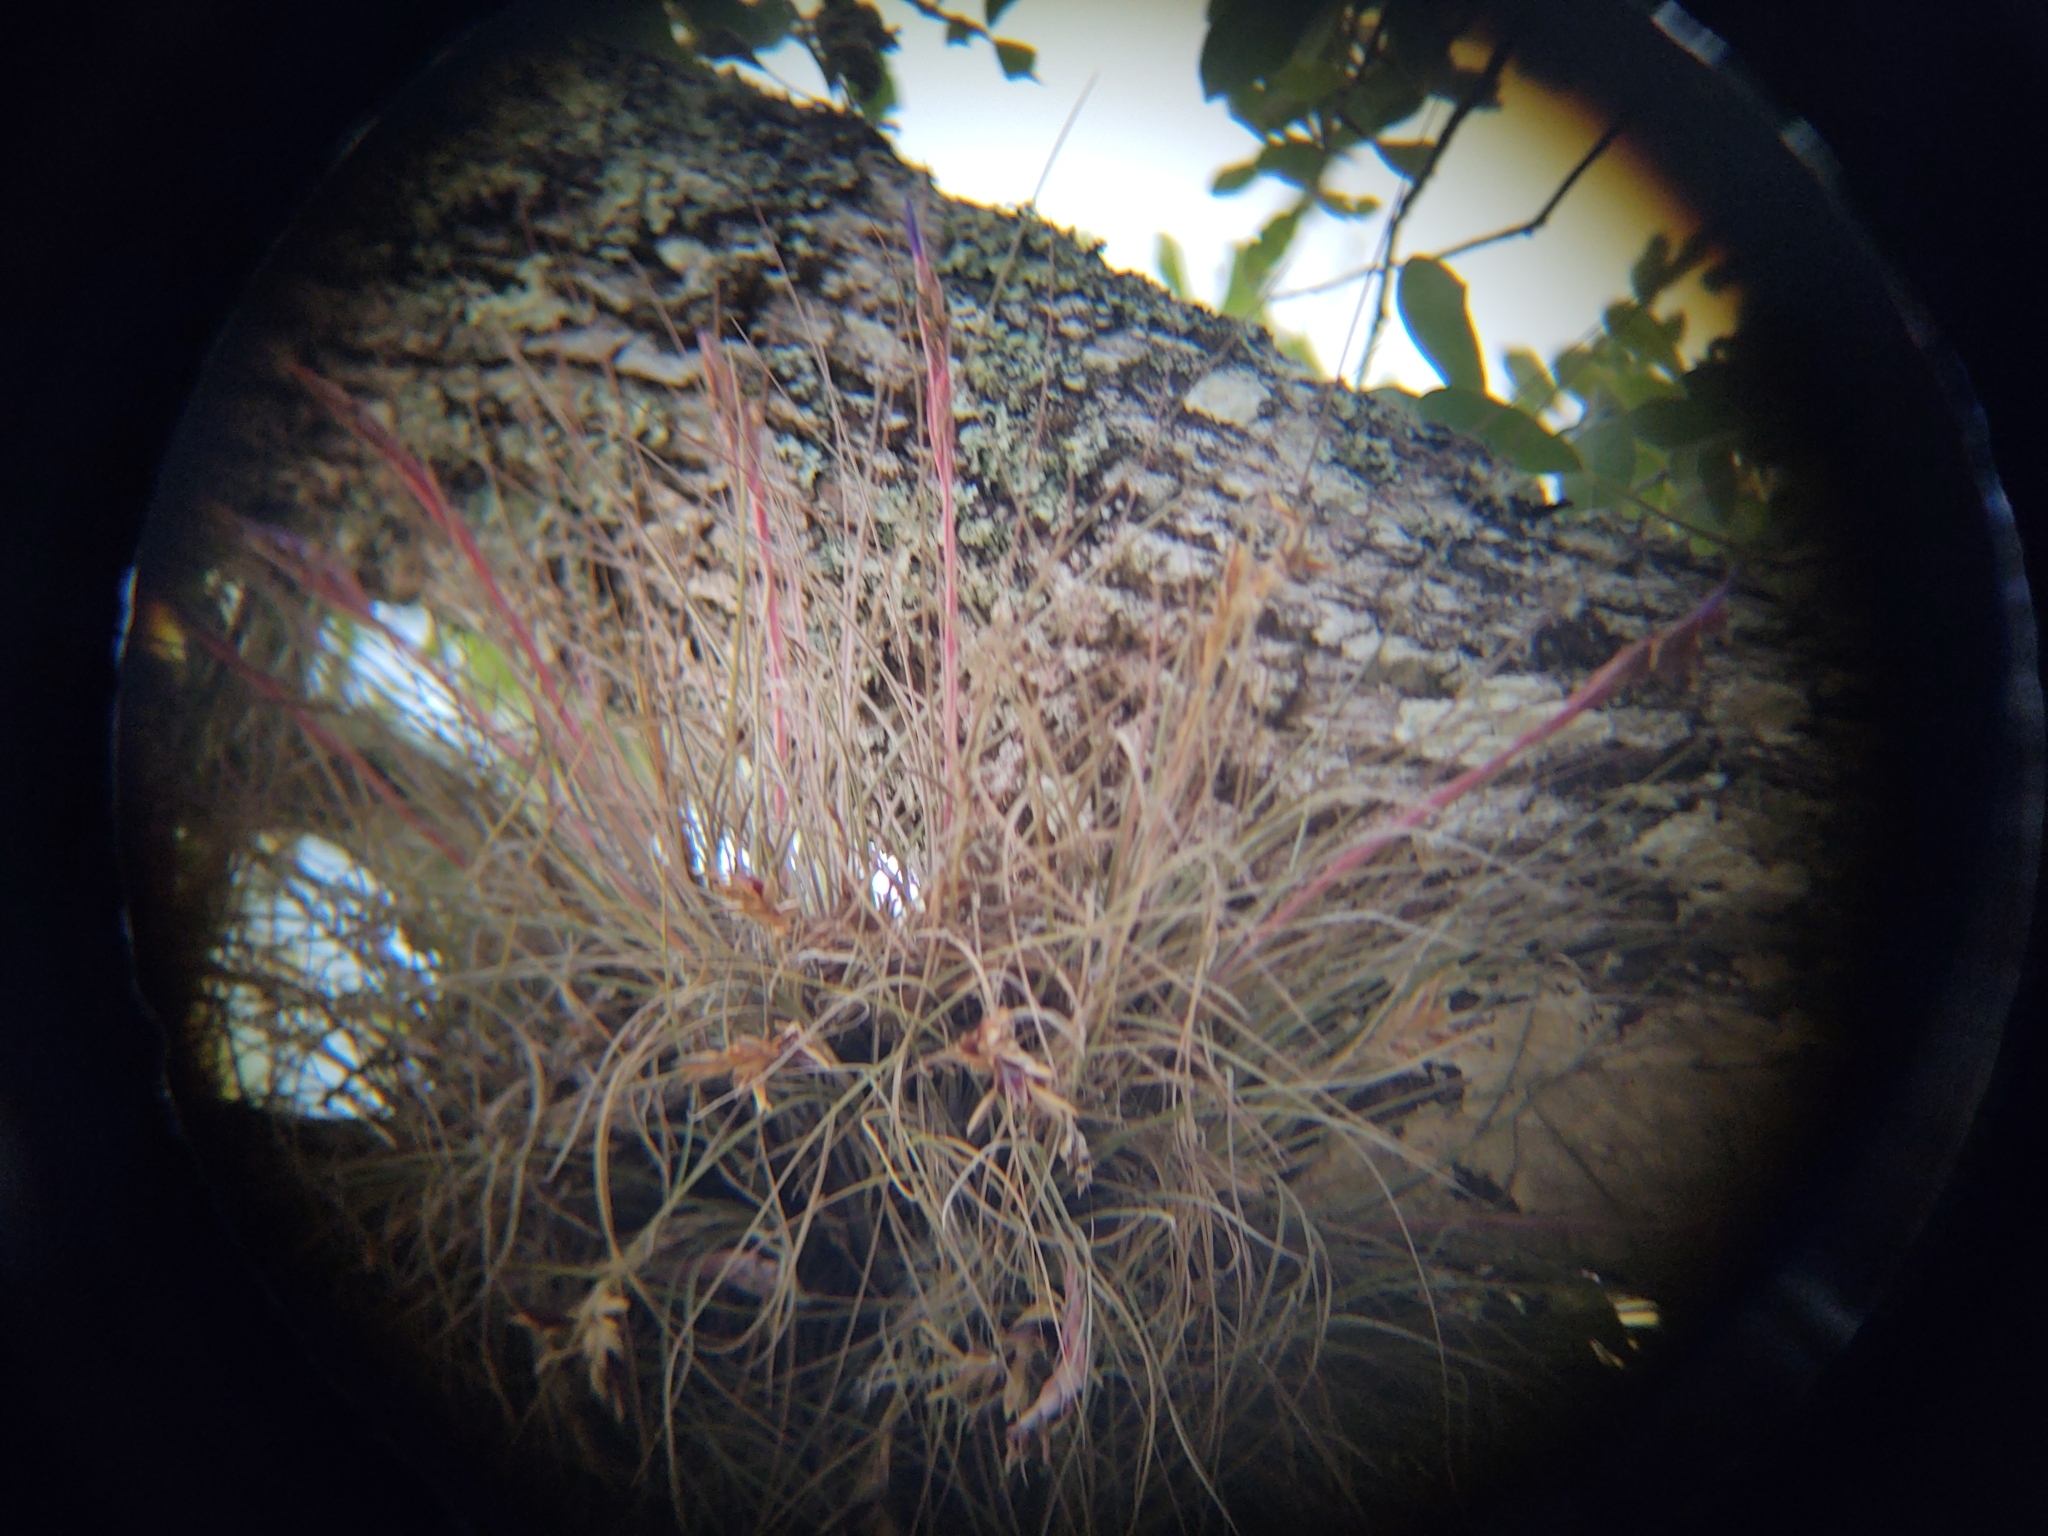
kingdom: Plantae
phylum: Tracheophyta
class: Liliopsida
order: Poales
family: Bromeliaceae
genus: Tillandsia
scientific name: Tillandsia bartramii
